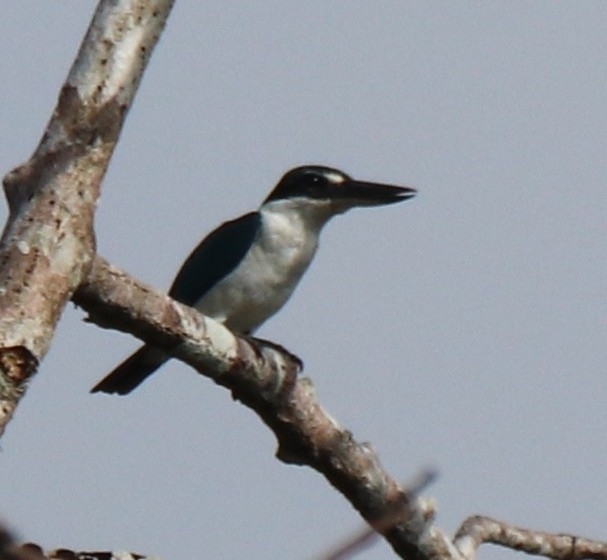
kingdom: Animalia
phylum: Chordata
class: Aves
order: Coraciiformes
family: Alcedinidae
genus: Todiramphus
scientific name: Todiramphus chloris
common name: Collared kingfisher
